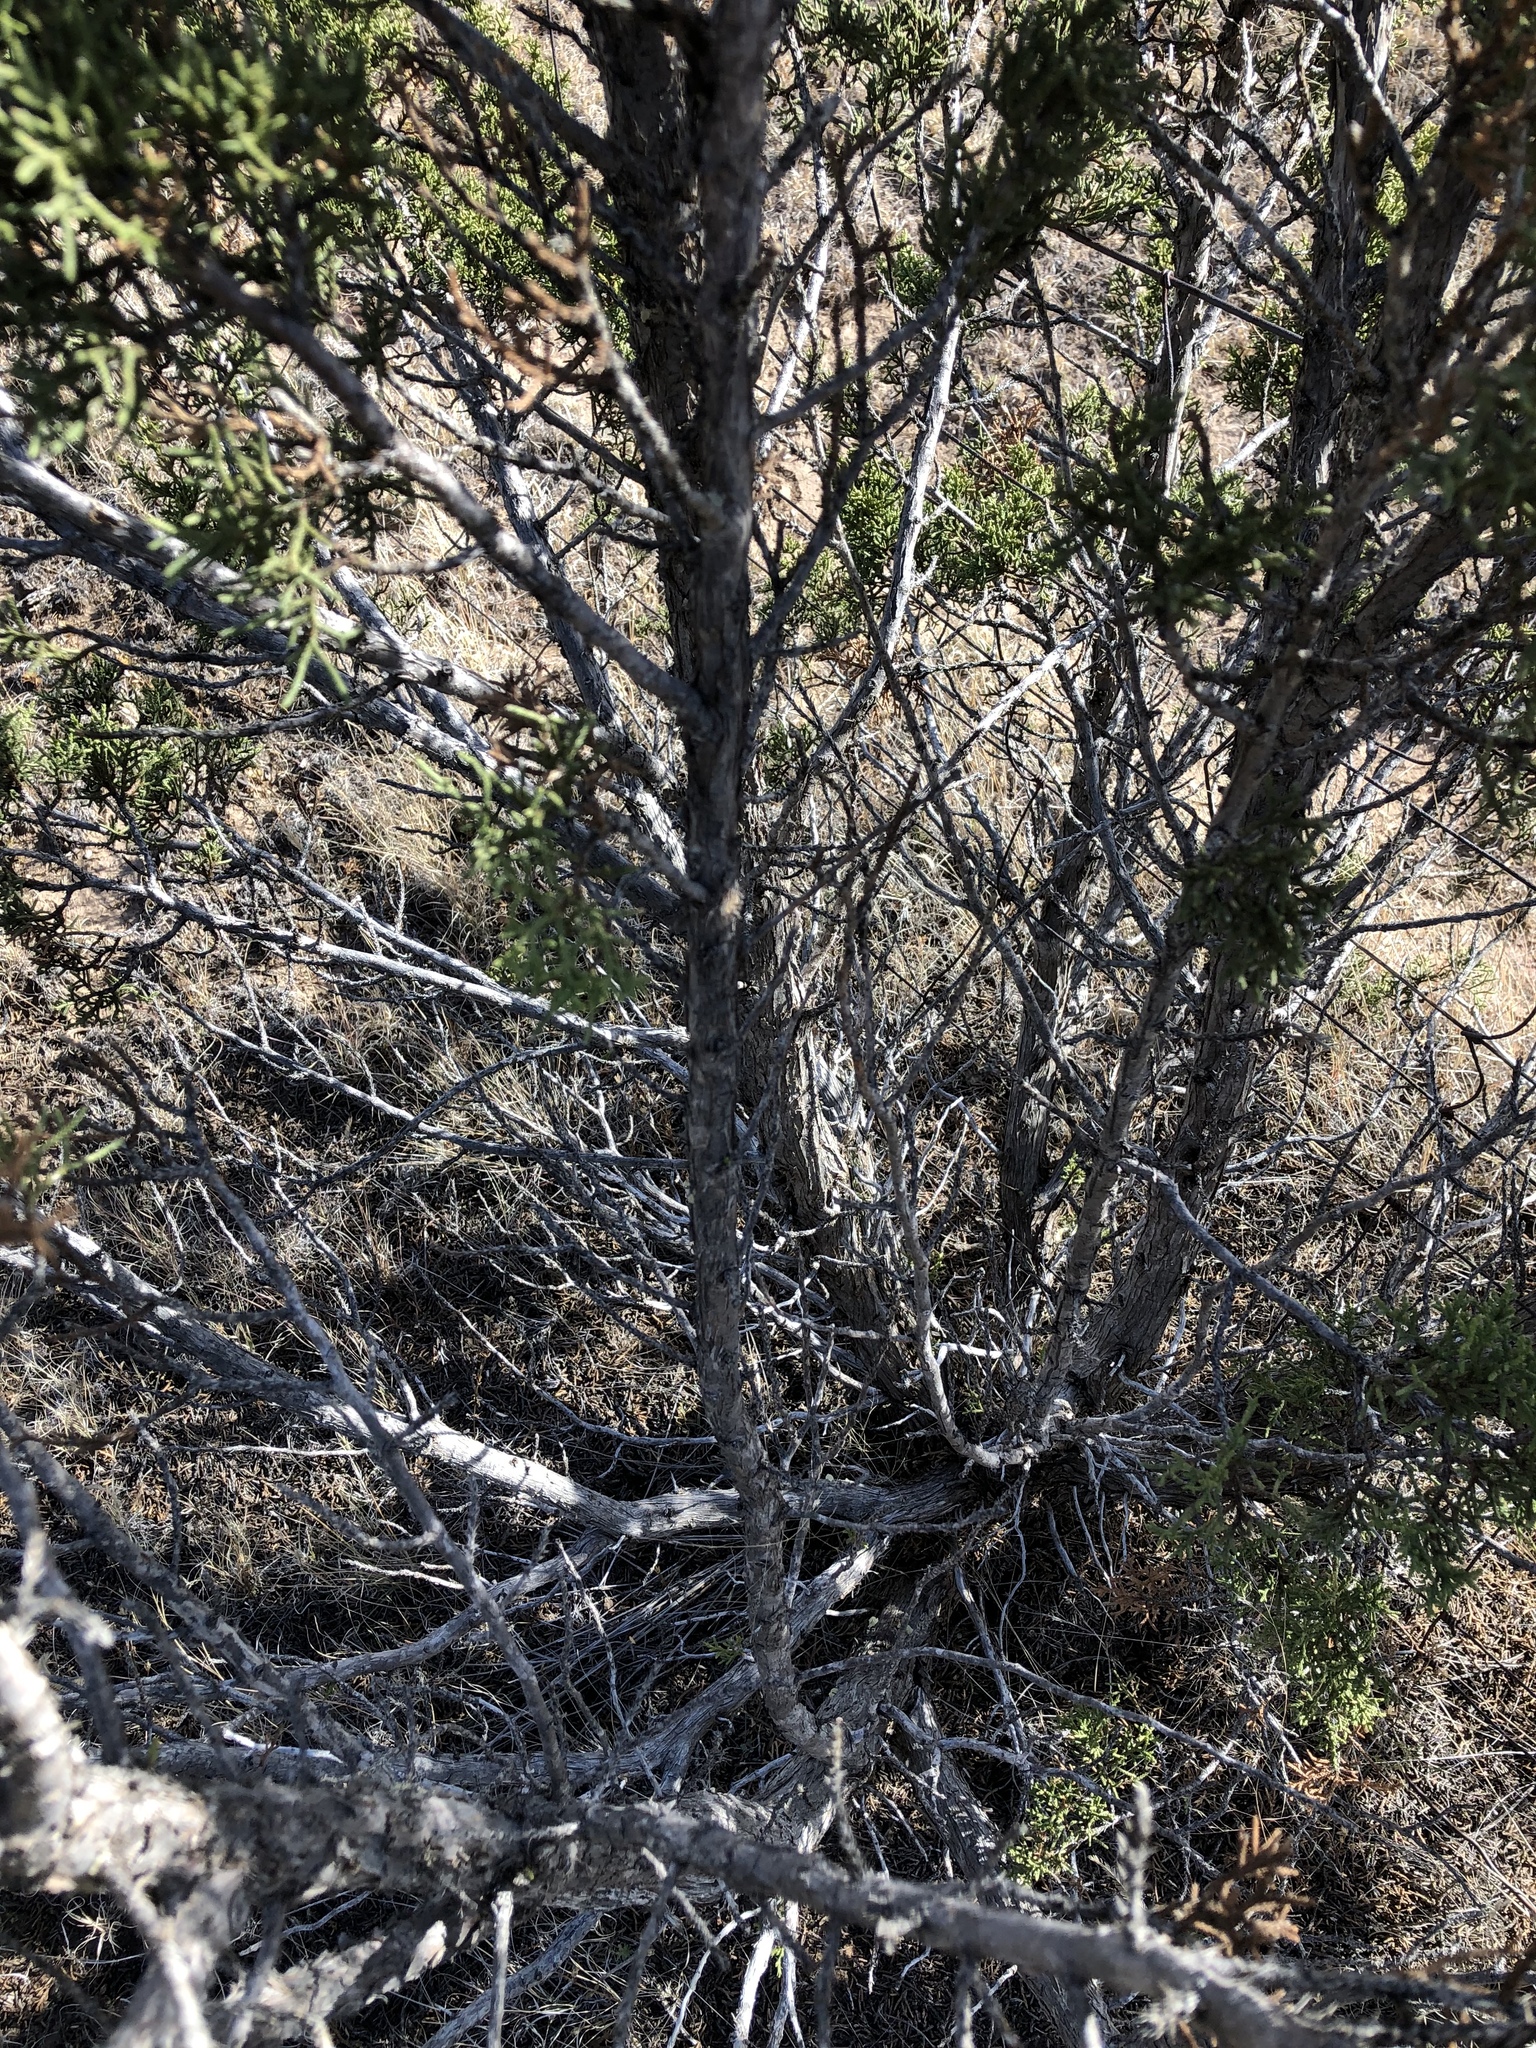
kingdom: Plantae
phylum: Tracheophyta
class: Pinopsida
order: Pinales
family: Cupressaceae
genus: Juniperus
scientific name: Juniperus monosperma
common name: One-seed juniper
